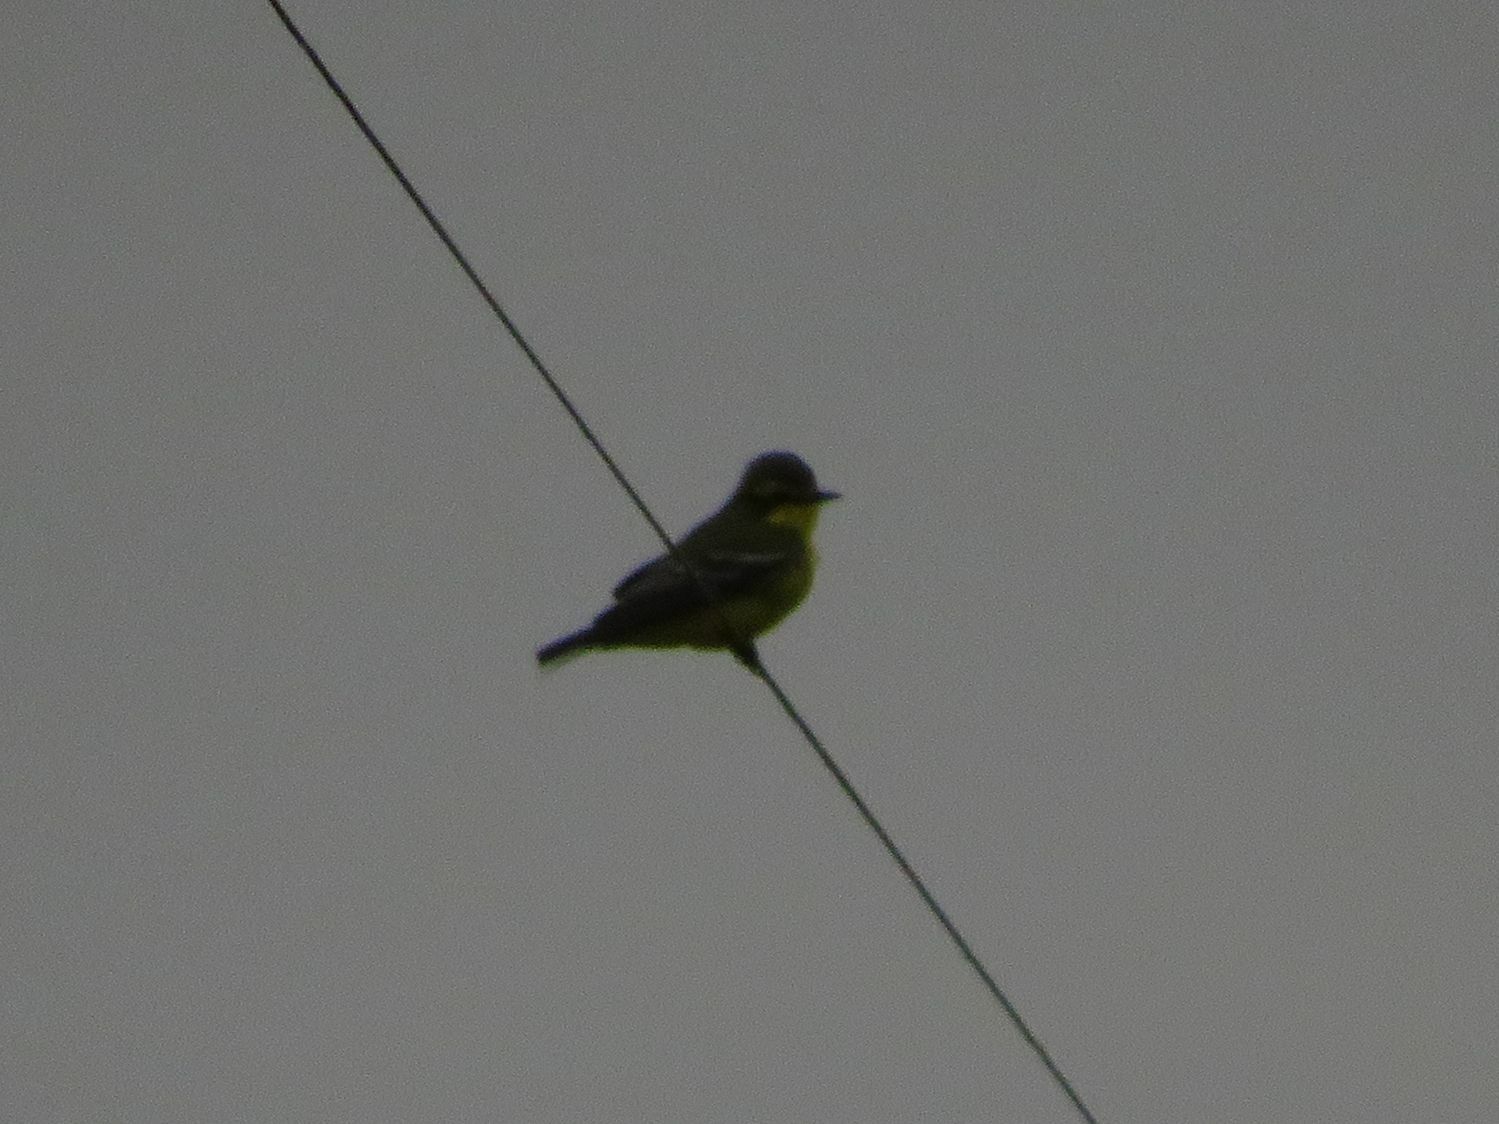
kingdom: Animalia
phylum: Chordata
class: Aves
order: Passeriformes
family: Tyrannidae
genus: Satrapa
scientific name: Satrapa icterophrys
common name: Yellow-browed tyrant
